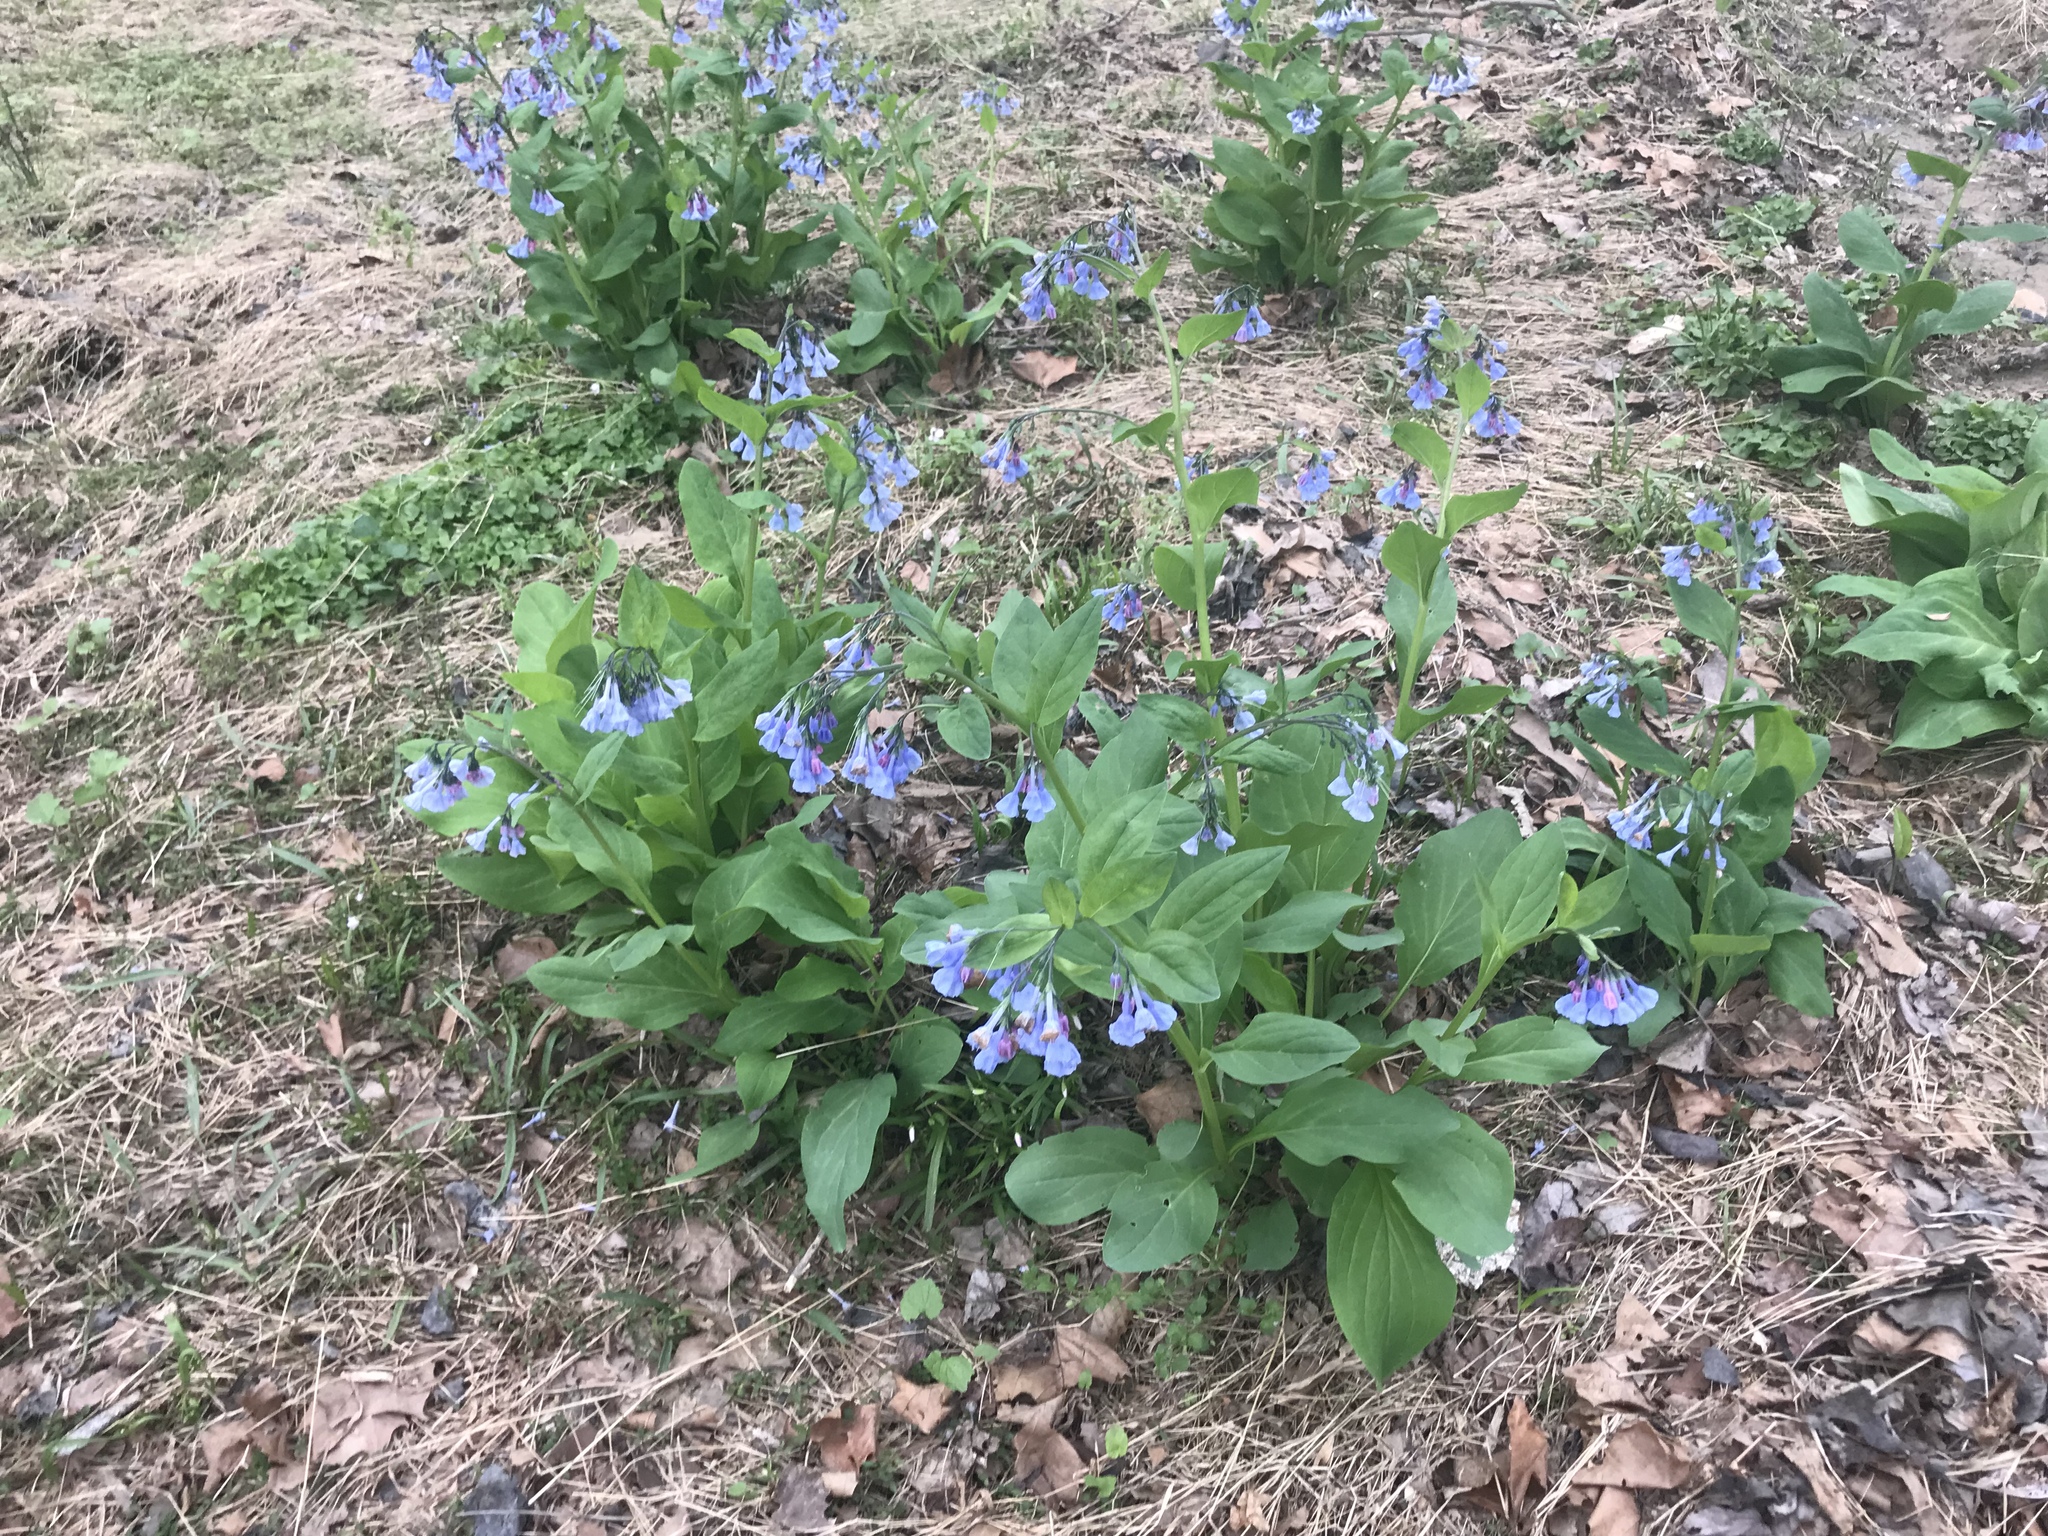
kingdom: Plantae
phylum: Tracheophyta
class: Magnoliopsida
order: Boraginales
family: Boraginaceae
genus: Mertensia
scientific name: Mertensia virginica
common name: Virginia bluebells
